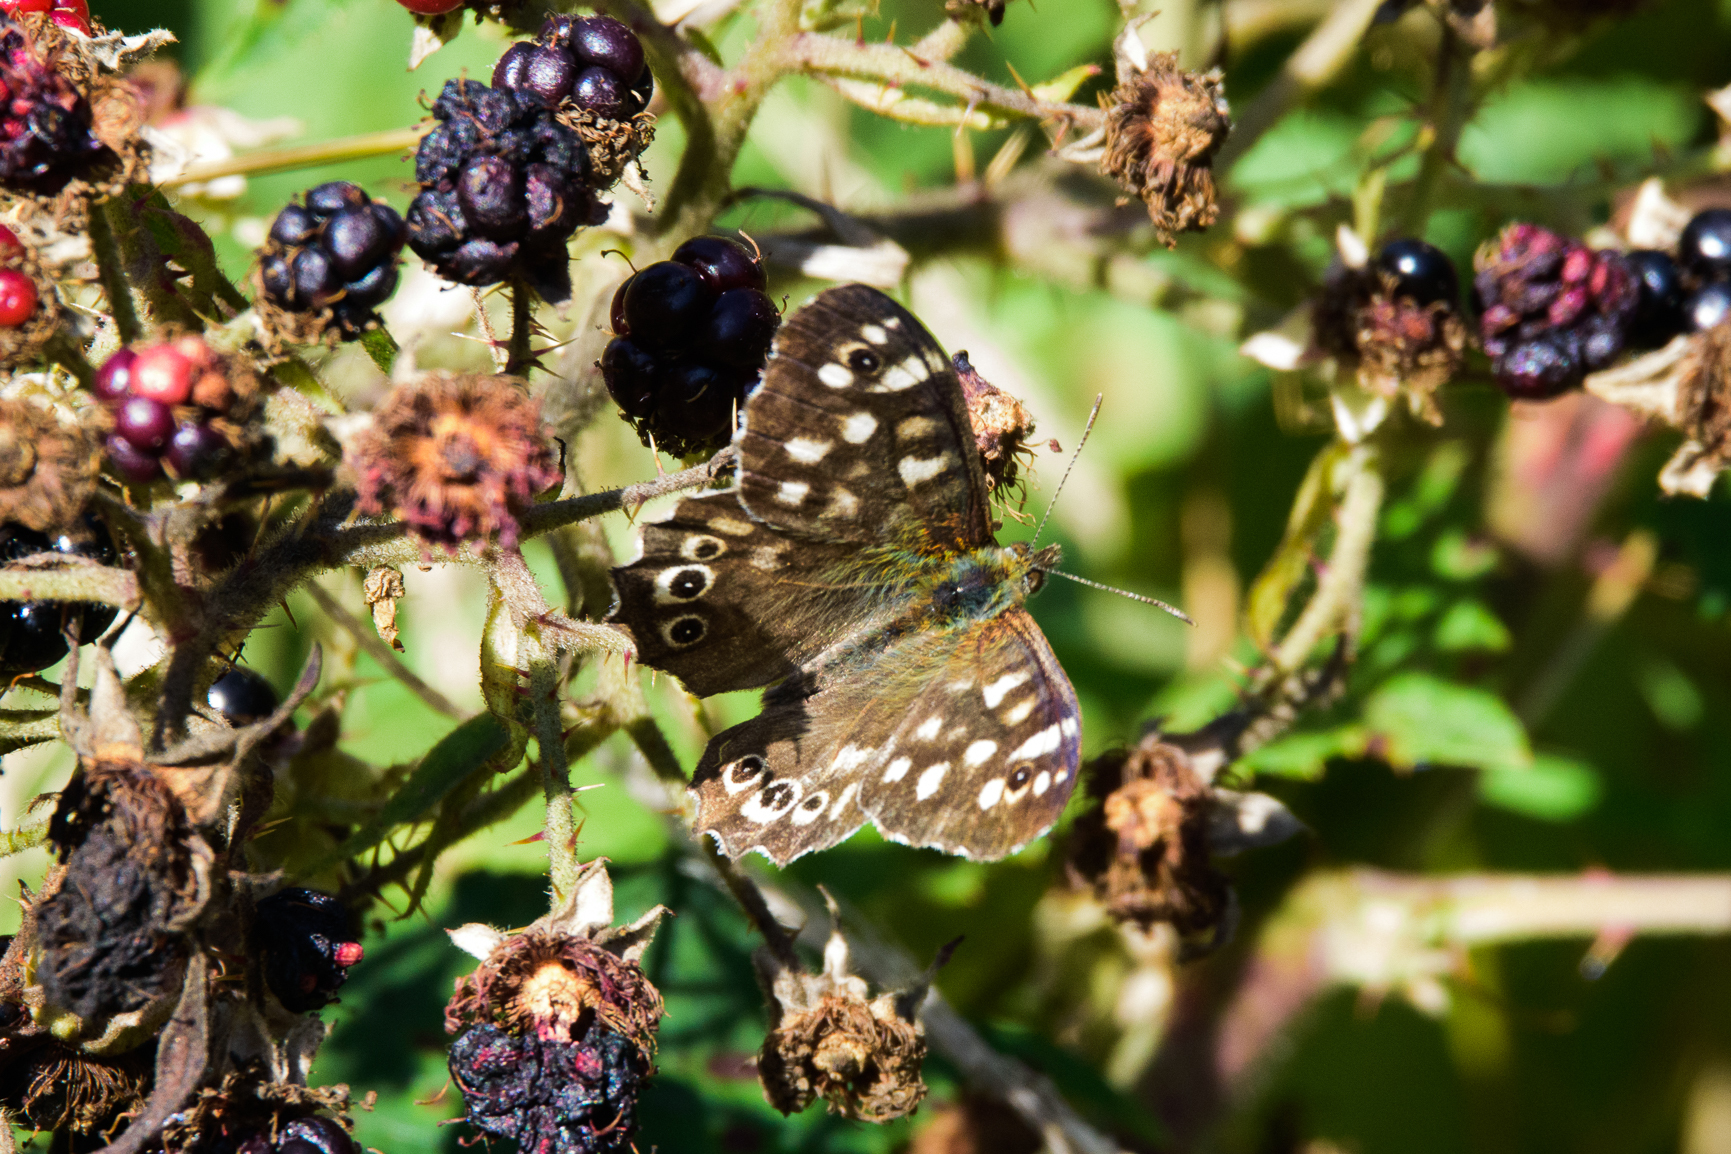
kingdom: Animalia
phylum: Arthropoda
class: Insecta
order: Lepidoptera
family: Nymphalidae
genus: Pararge
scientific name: Pararge aegeria
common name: Speckled wood
